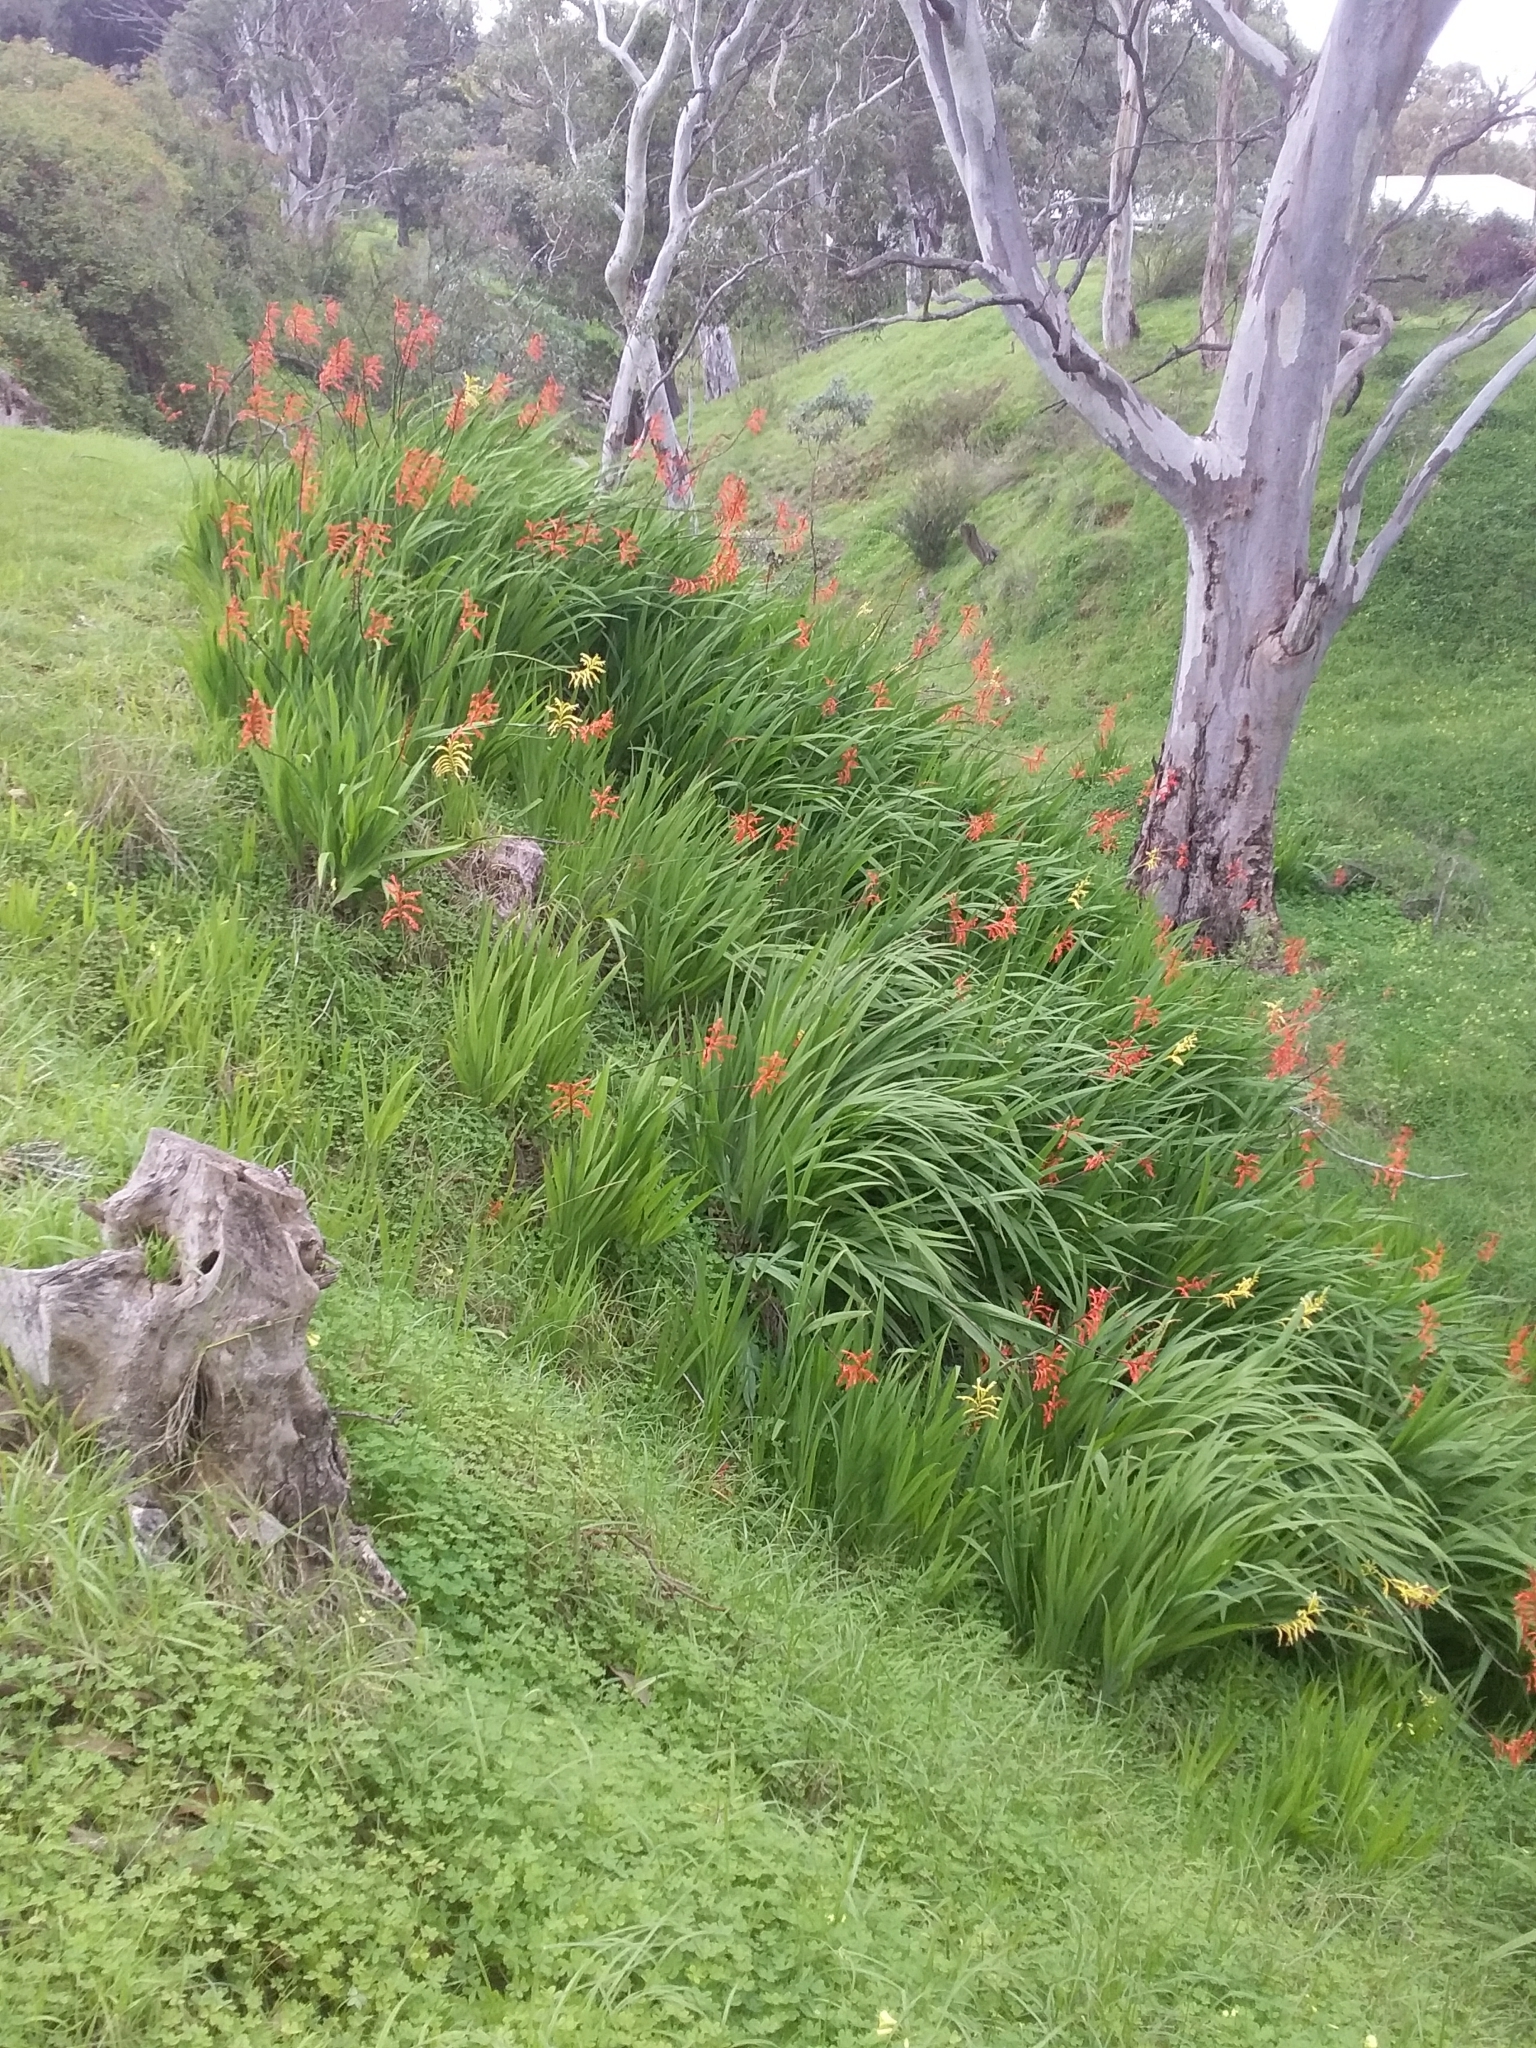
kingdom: Plantae
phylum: Tracheophyta
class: Liliopsida
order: Asparagales
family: Iridaceae
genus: Chasmanthe
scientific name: Chasmanthe floribunda
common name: African cornflag
